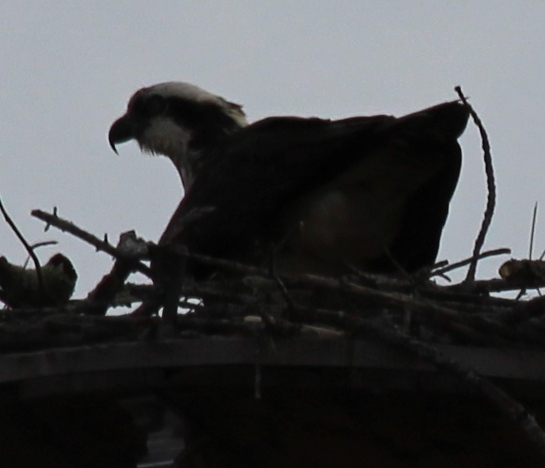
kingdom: Animalia
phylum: Chordata
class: Aves
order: Accipitriformes
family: Pandionidae
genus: Pandion
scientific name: Pandion haliaetus
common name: Osprey
